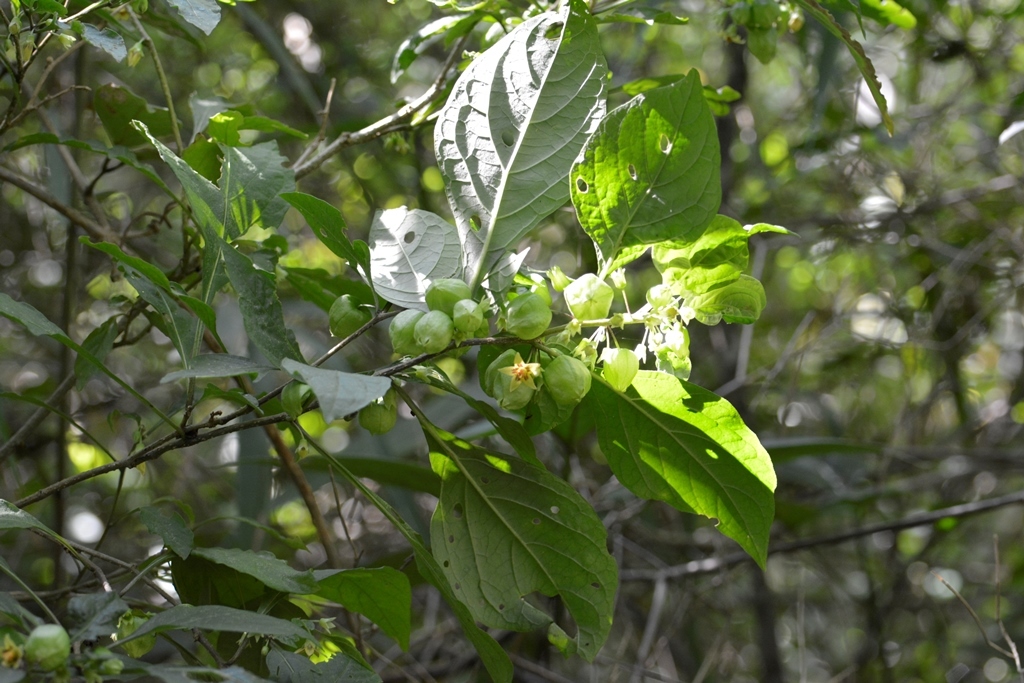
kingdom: Plantae
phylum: Tracheophyta
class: Magnoliopsida
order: Solanales
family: Solanaceae
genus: Physalis
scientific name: Physalis campechiana
